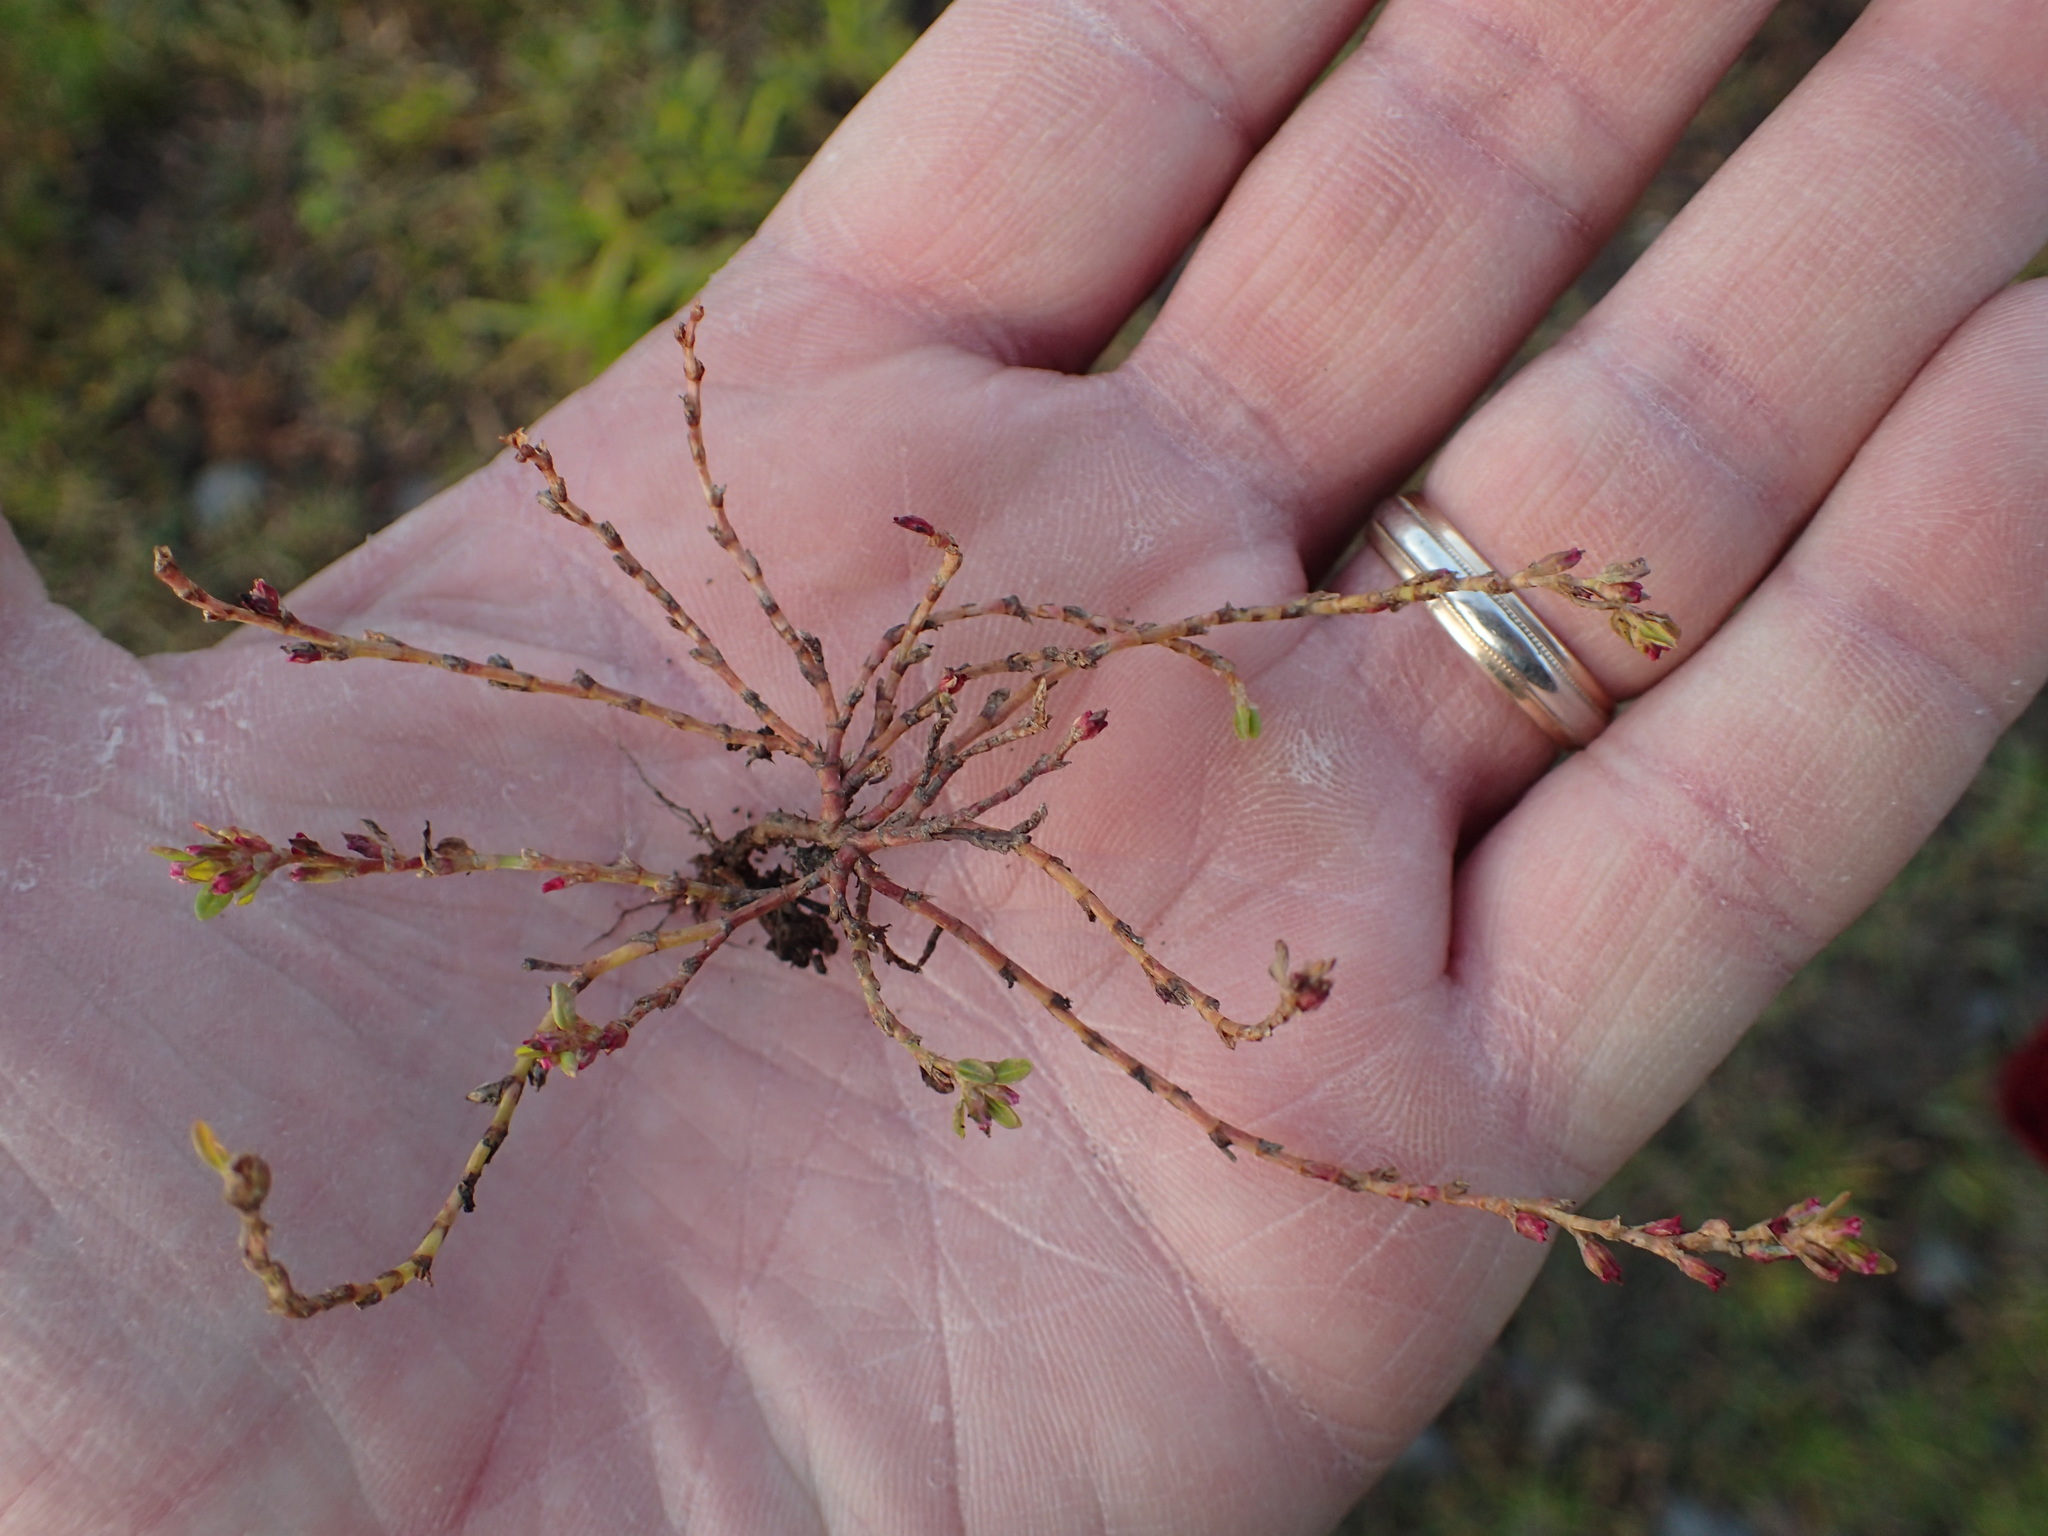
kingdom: Plantae
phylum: Tracheophyta
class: Magnoliopsida
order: Caryophyllales
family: Polygonaceae
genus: Polygonum
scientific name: Polygonum aviculare
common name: Prostrate knotweed
